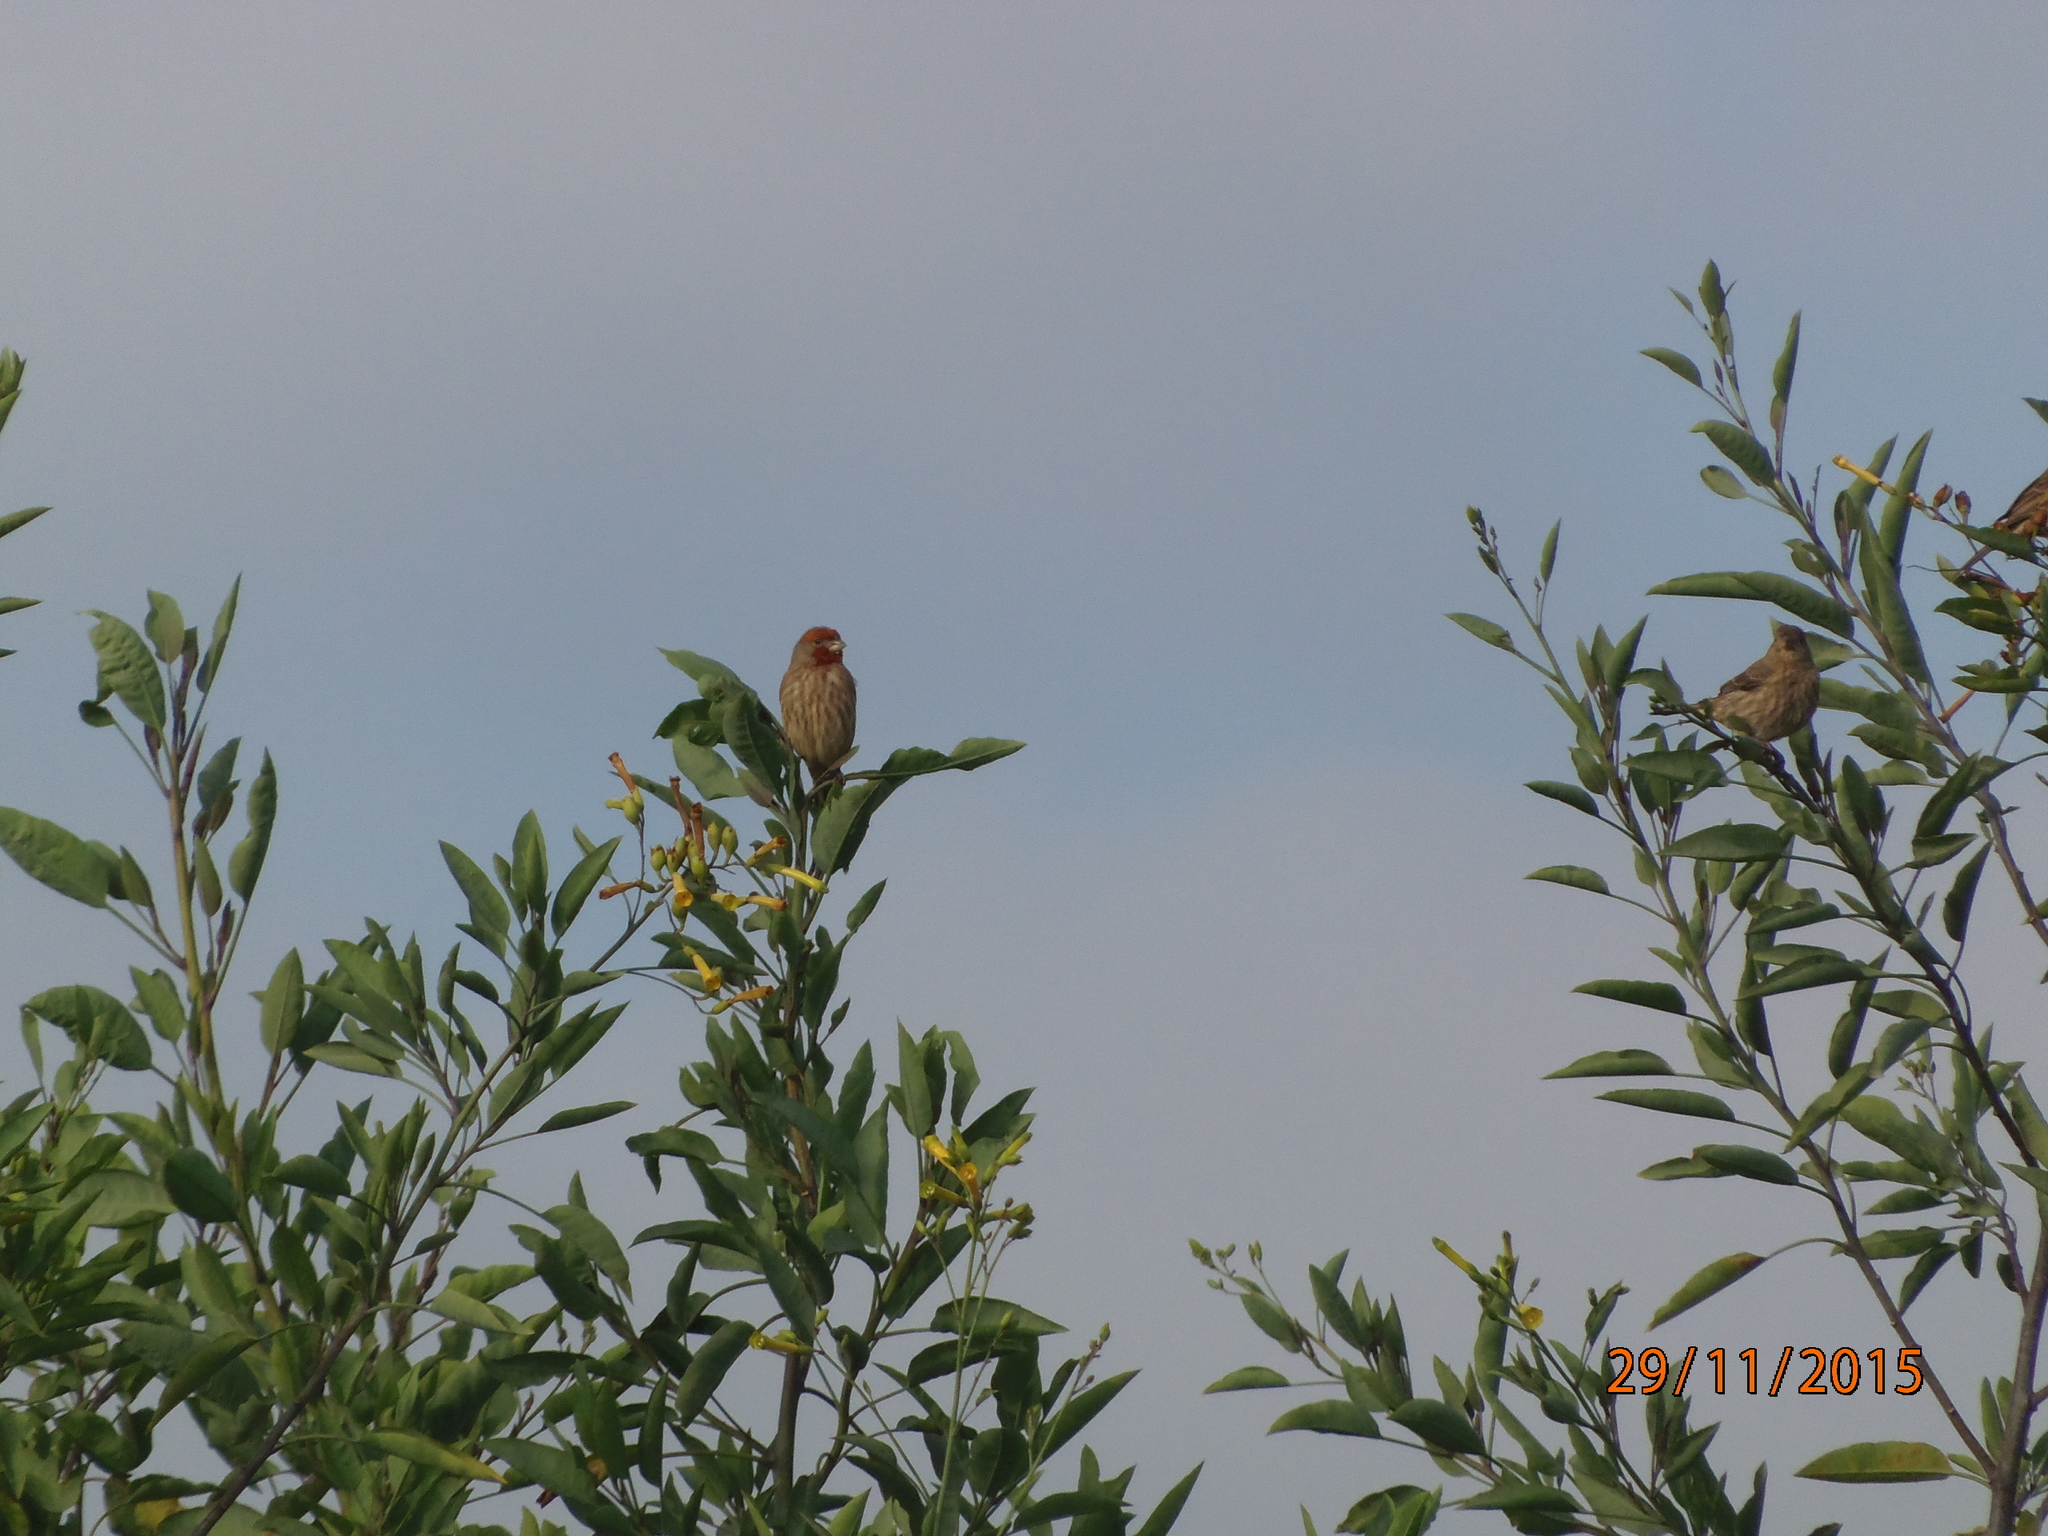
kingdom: Animalia
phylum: Chordata
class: Aves
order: Passeriformes
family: Fringillidae
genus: Haemorhous
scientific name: Haemorhous mexicanus
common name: House finch
